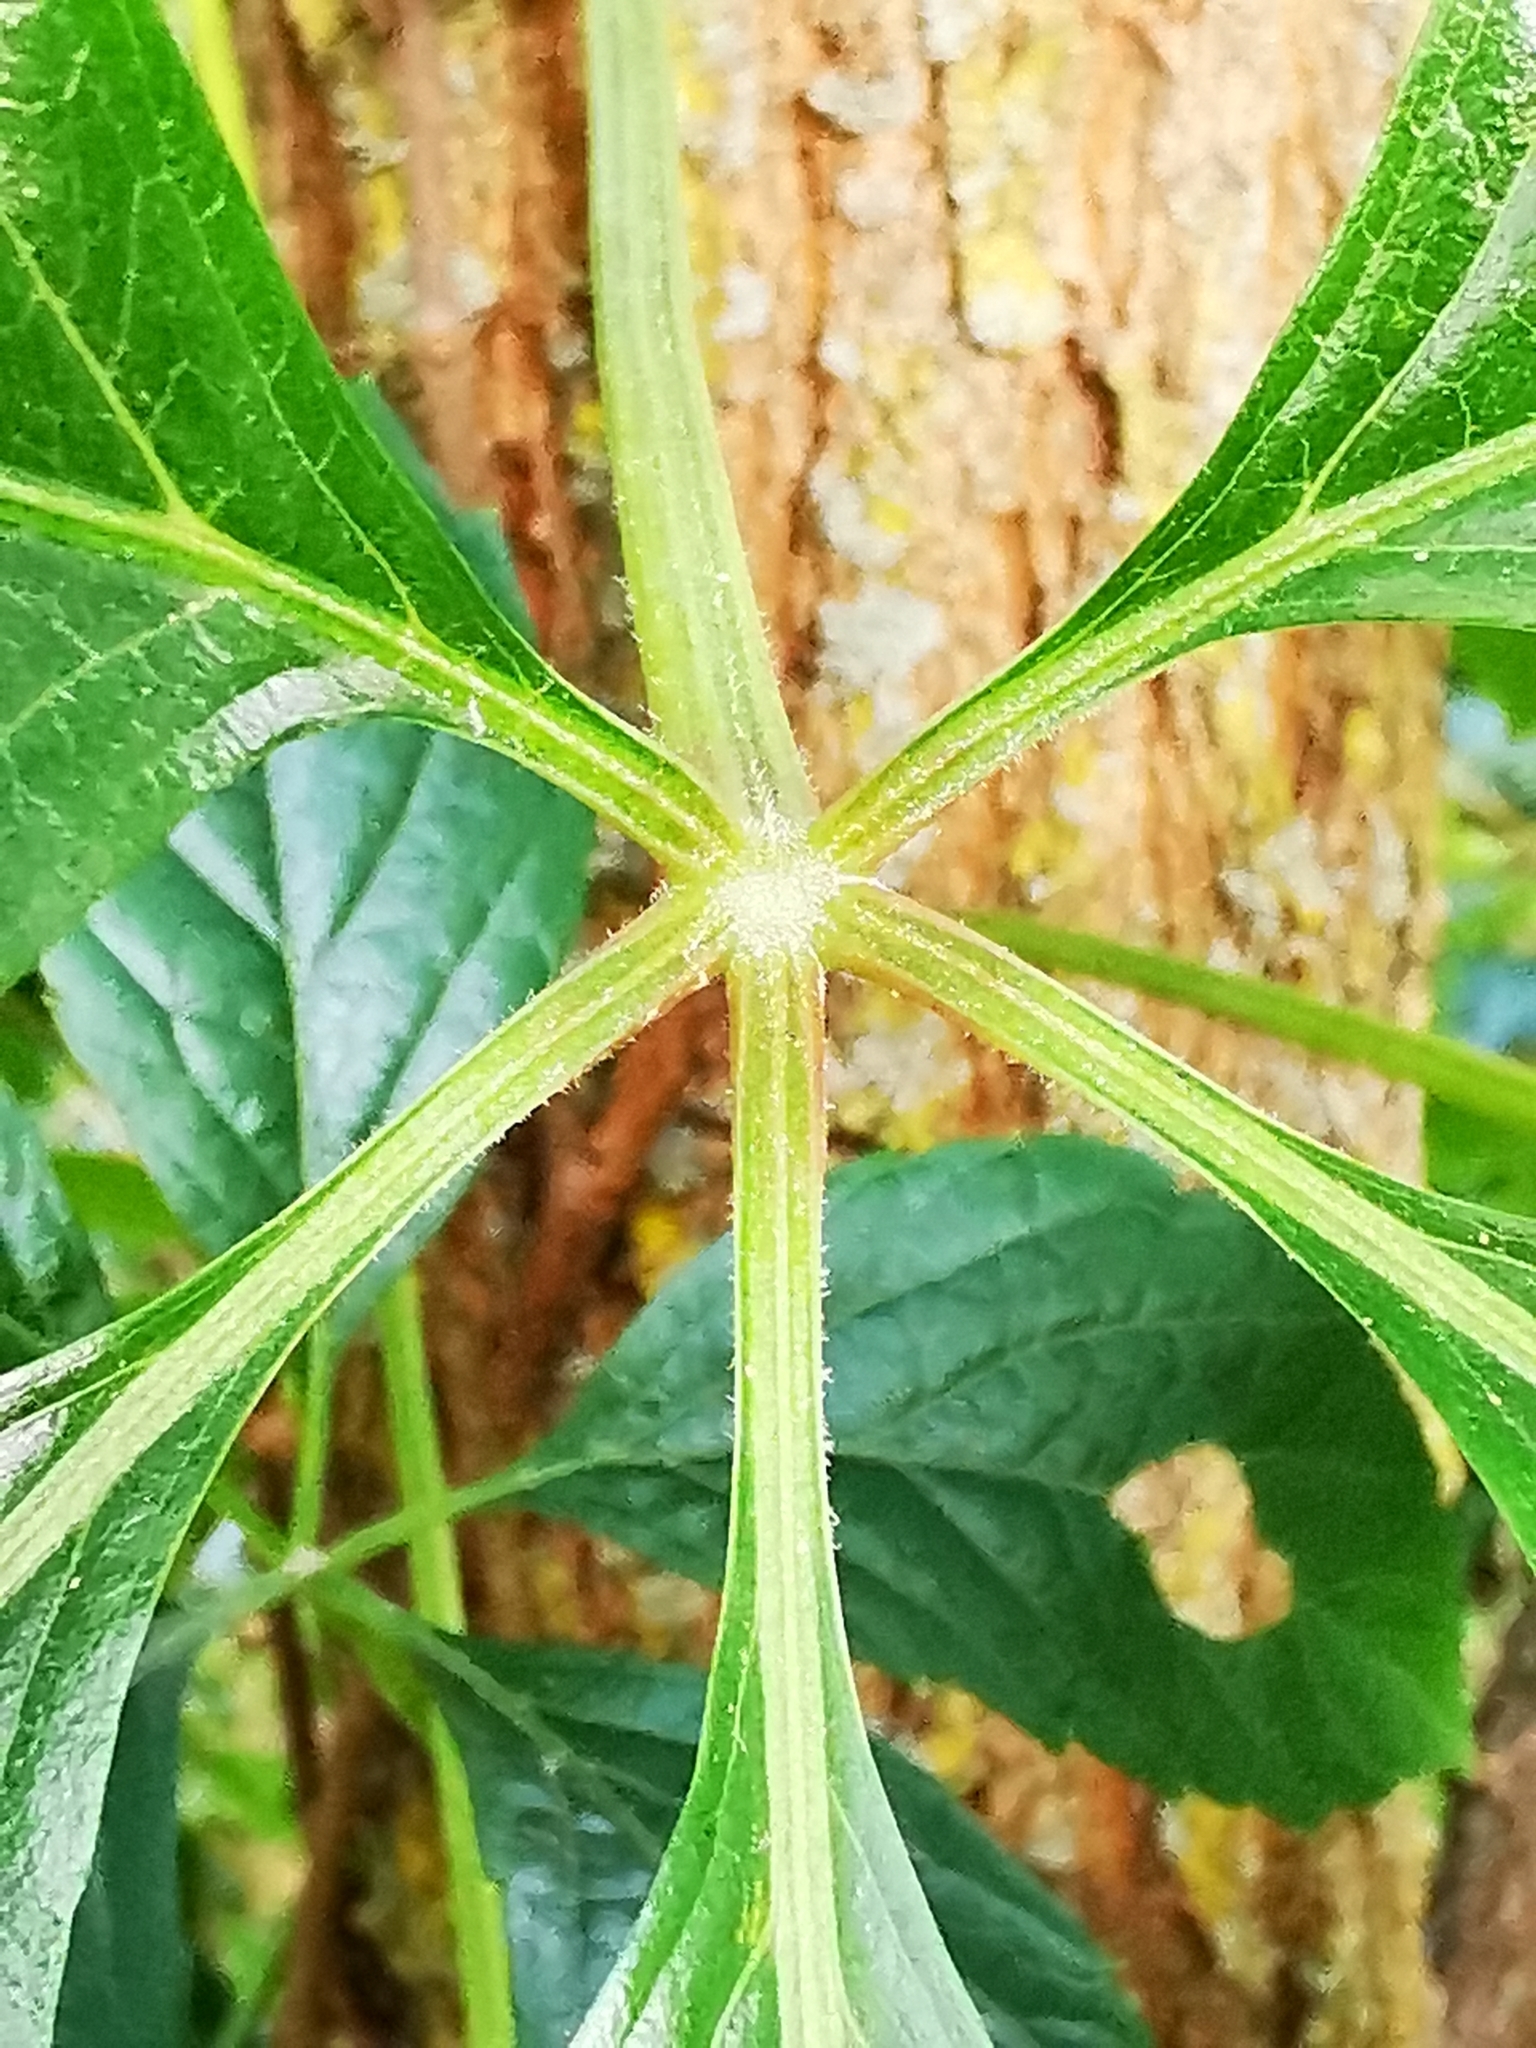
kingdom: Plantae
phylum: Tracheophyta
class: Magnoliopsida
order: Vitales
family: Vitaceae
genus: Parthenocissus
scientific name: Parthenocissus inserta
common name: False virginia-creeper
